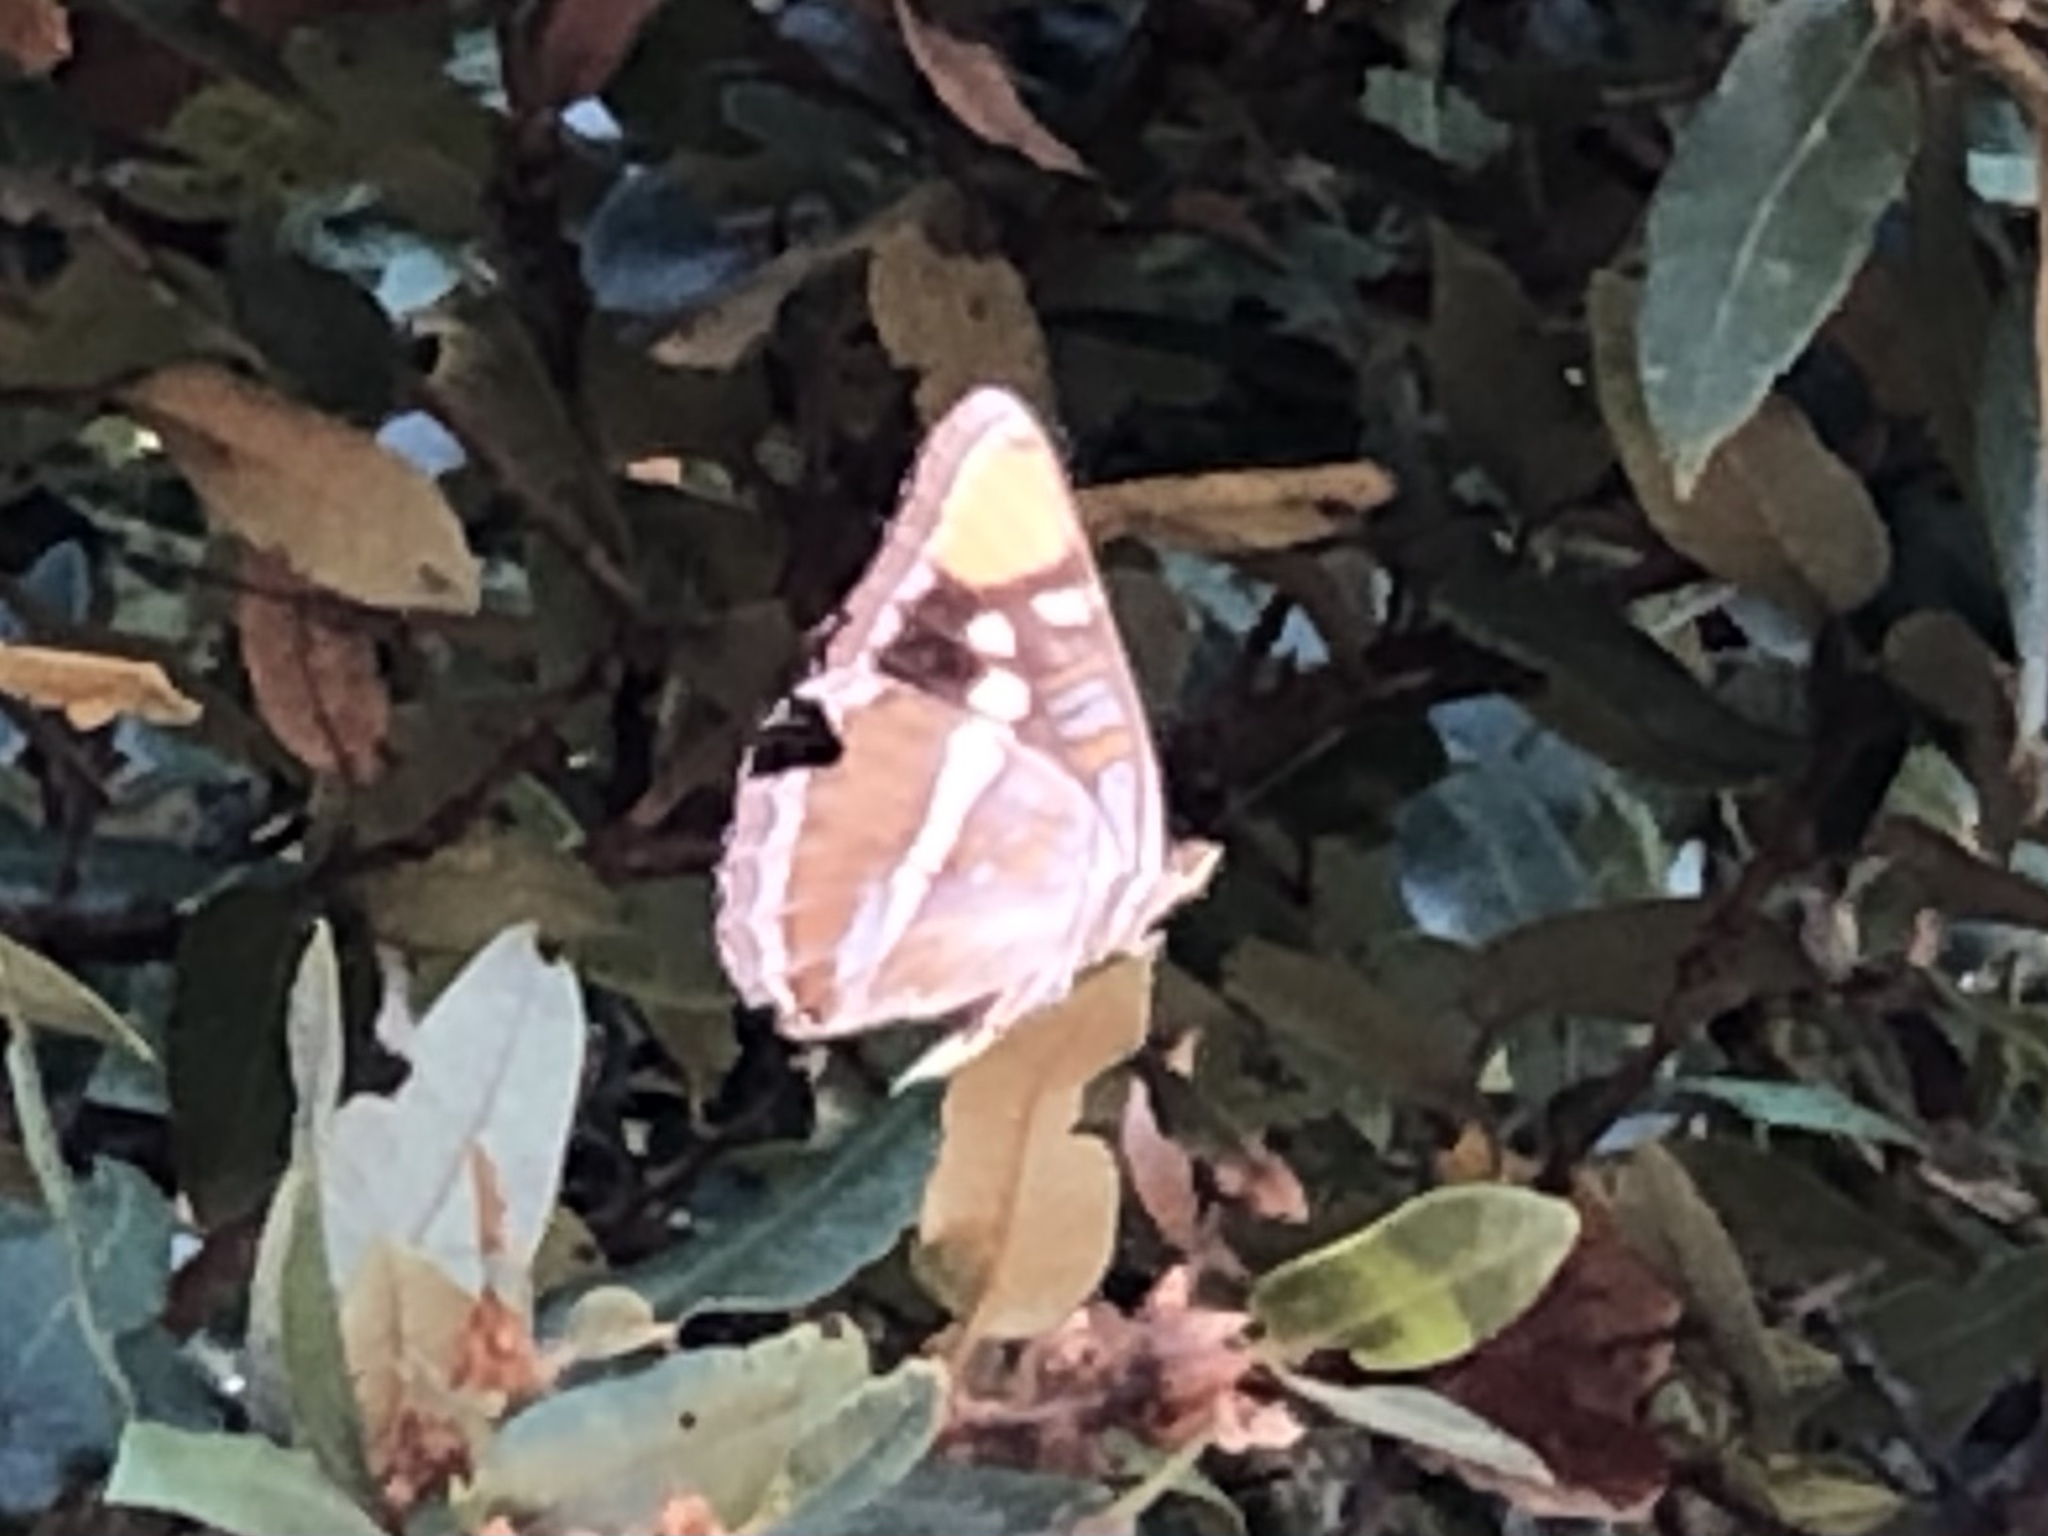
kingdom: Animalia
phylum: Arthropoda
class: Insecta
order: Lepidoptera
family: Nymphalidae
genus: Limenitis
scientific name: Limenitis bredowii
